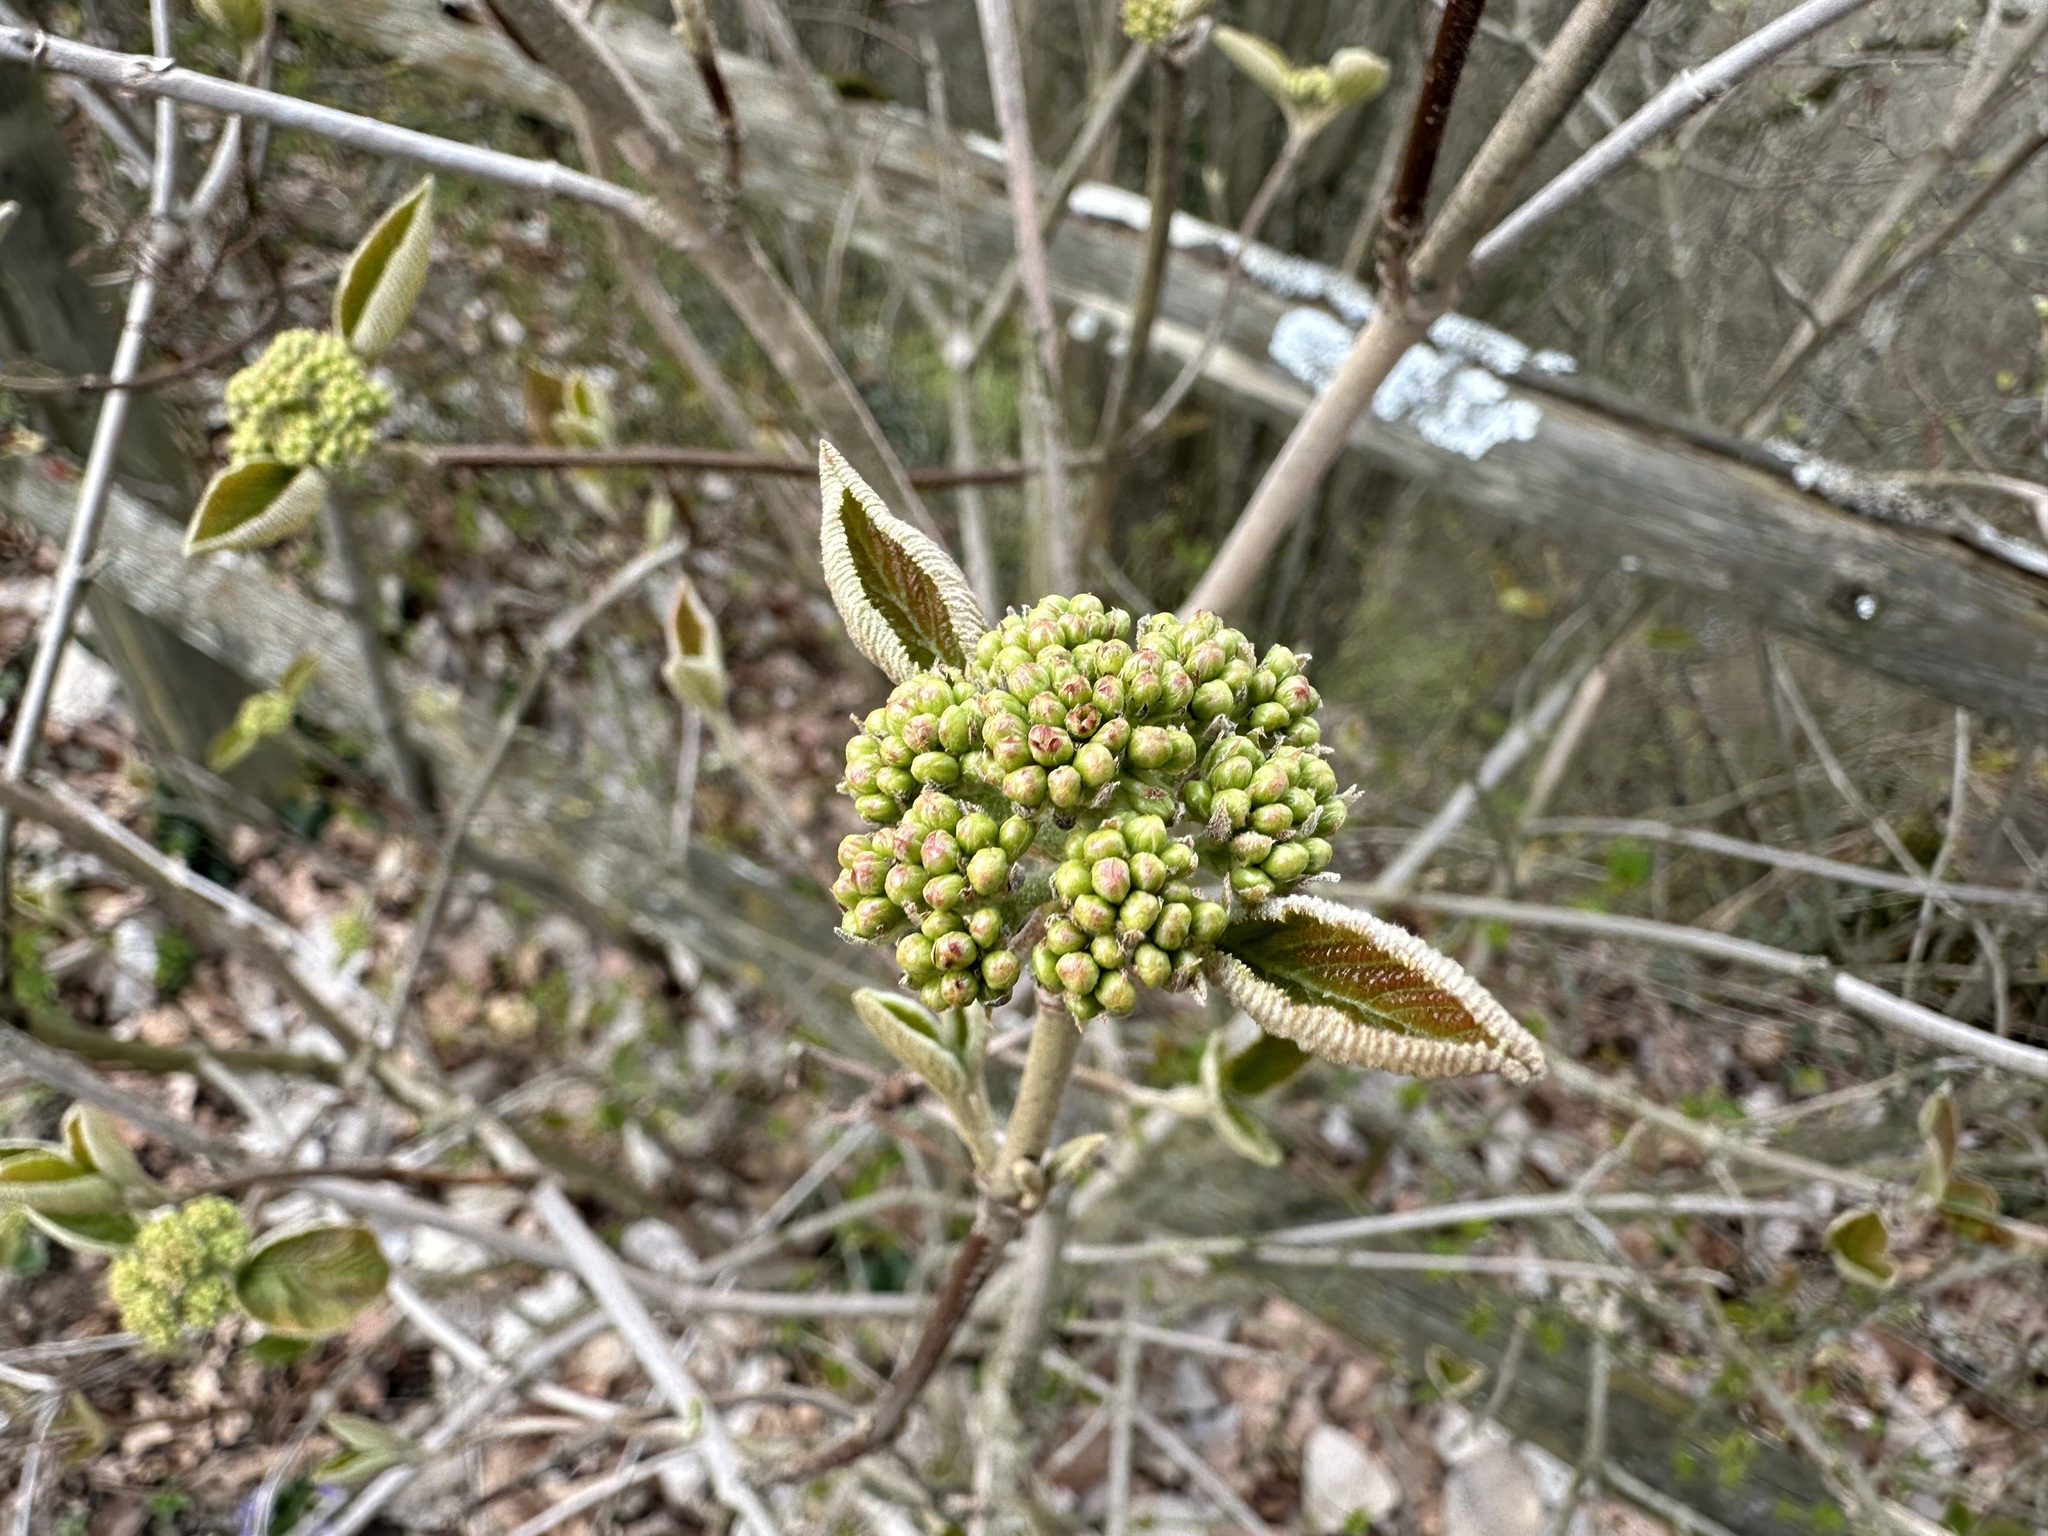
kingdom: Plantae
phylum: Tracheophyta
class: Magnoliopsida
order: Dipsacales
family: Viburnaceae
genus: Viburnum
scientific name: Viburnum lantana
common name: Wayfaring tree
